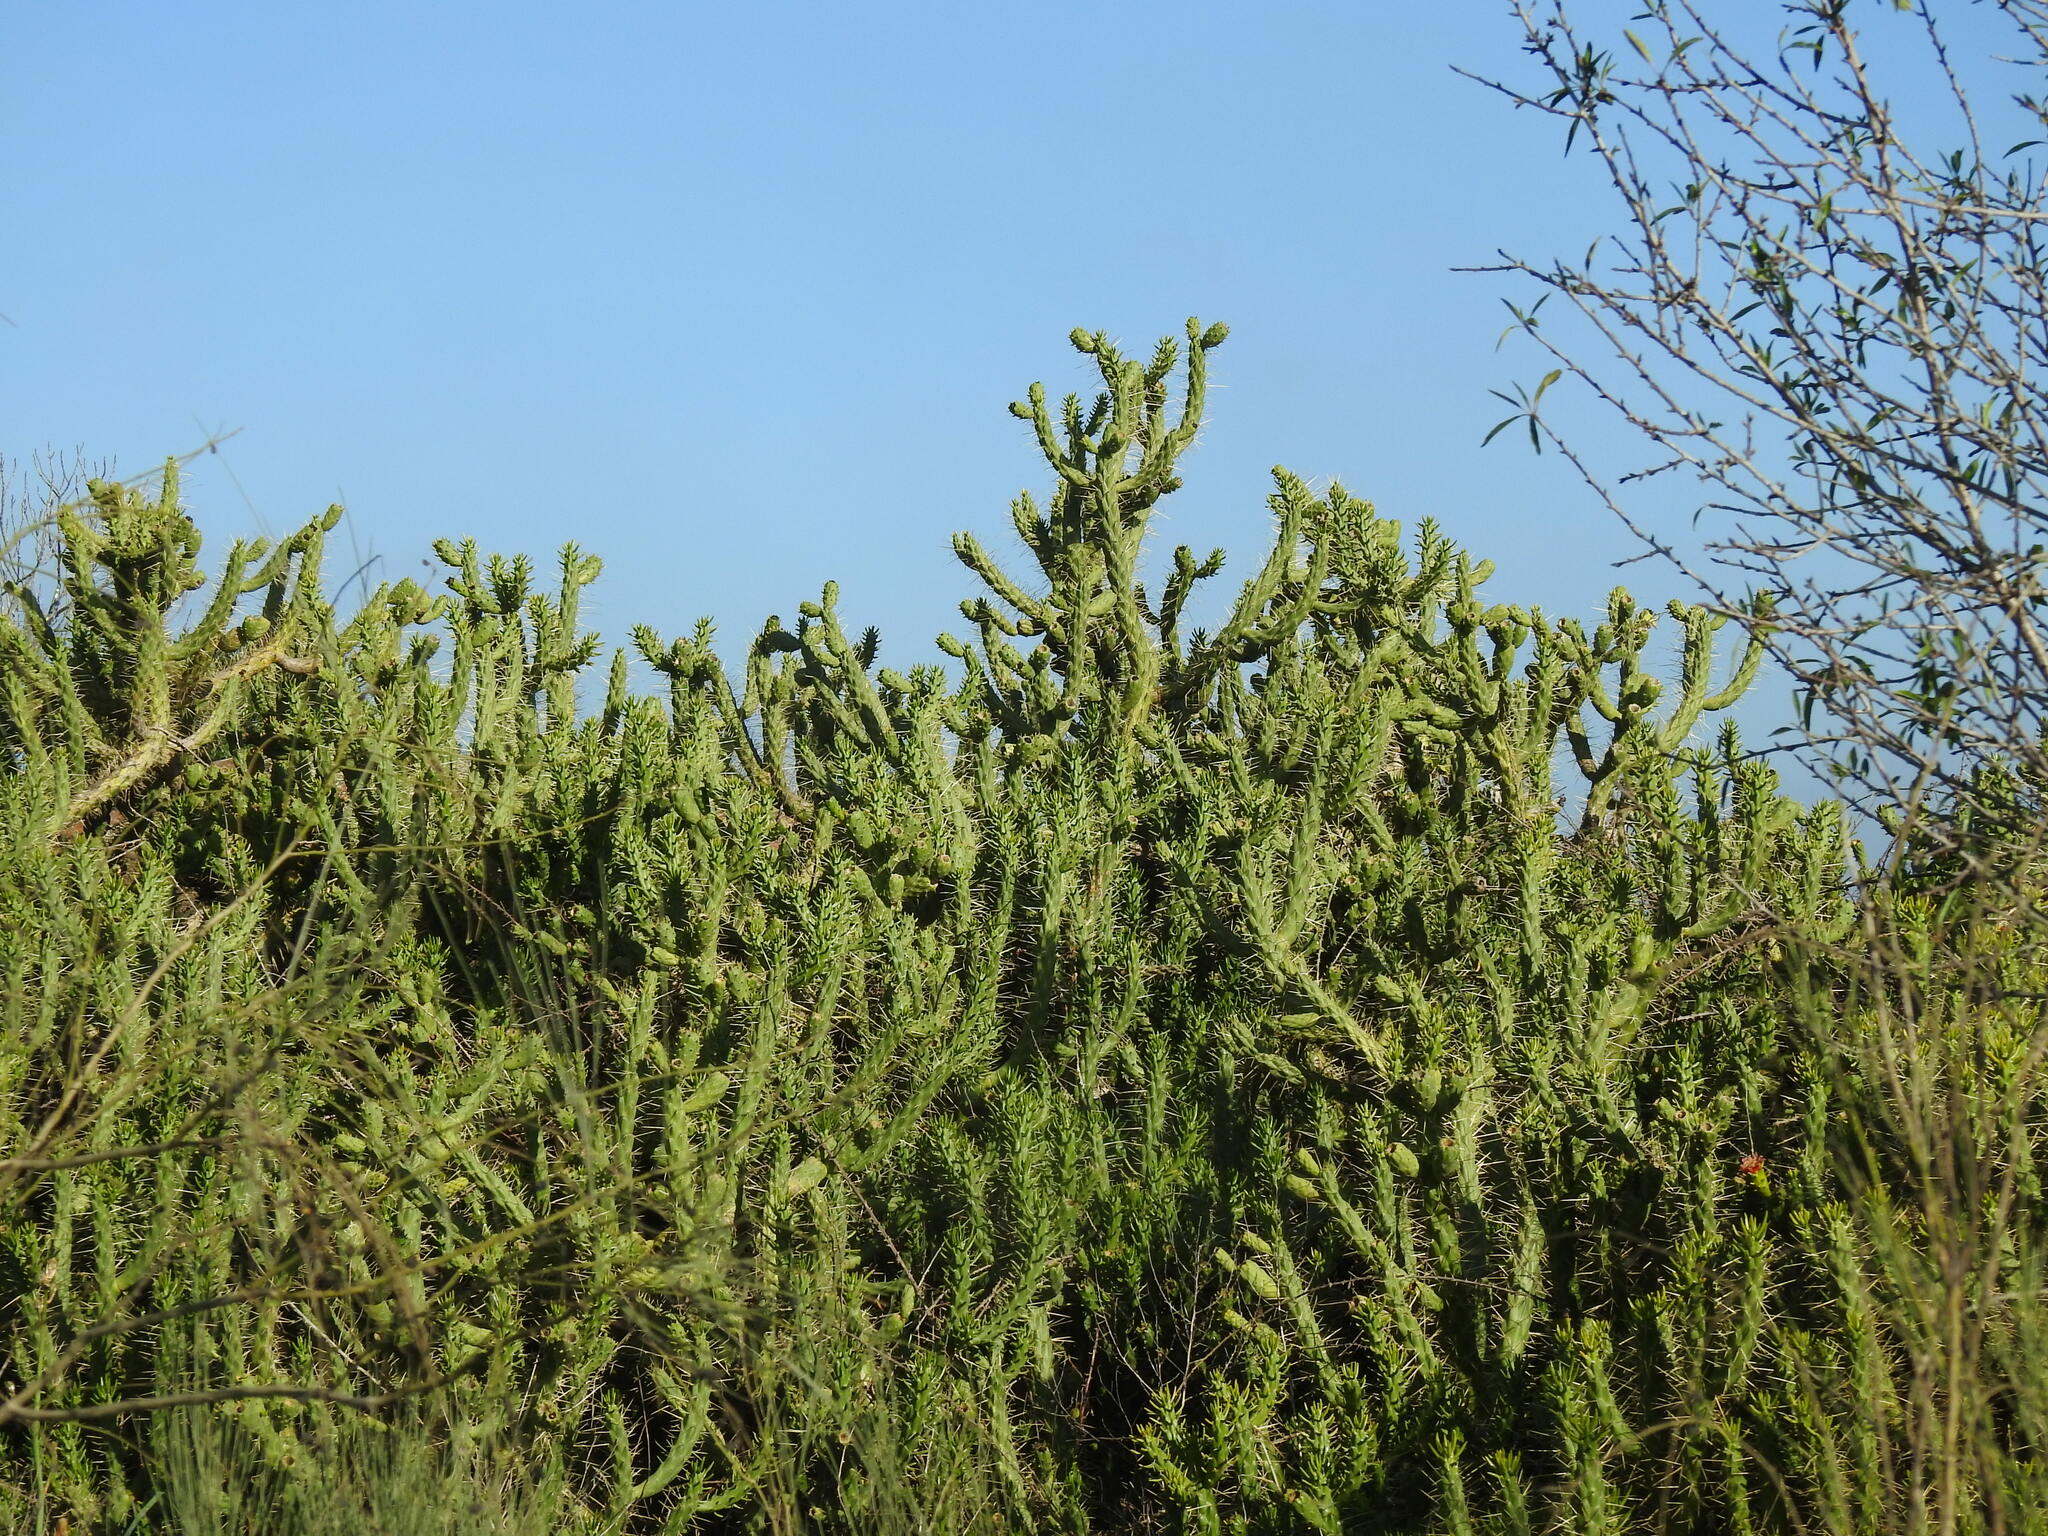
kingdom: Plantae
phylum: Tracheophyta
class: Magnoliopsida
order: Caryophyllales
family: Cactaceae
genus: Austrocylindropuntia
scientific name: Austrocylindropuntia subulata
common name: Eve's needle cactus
